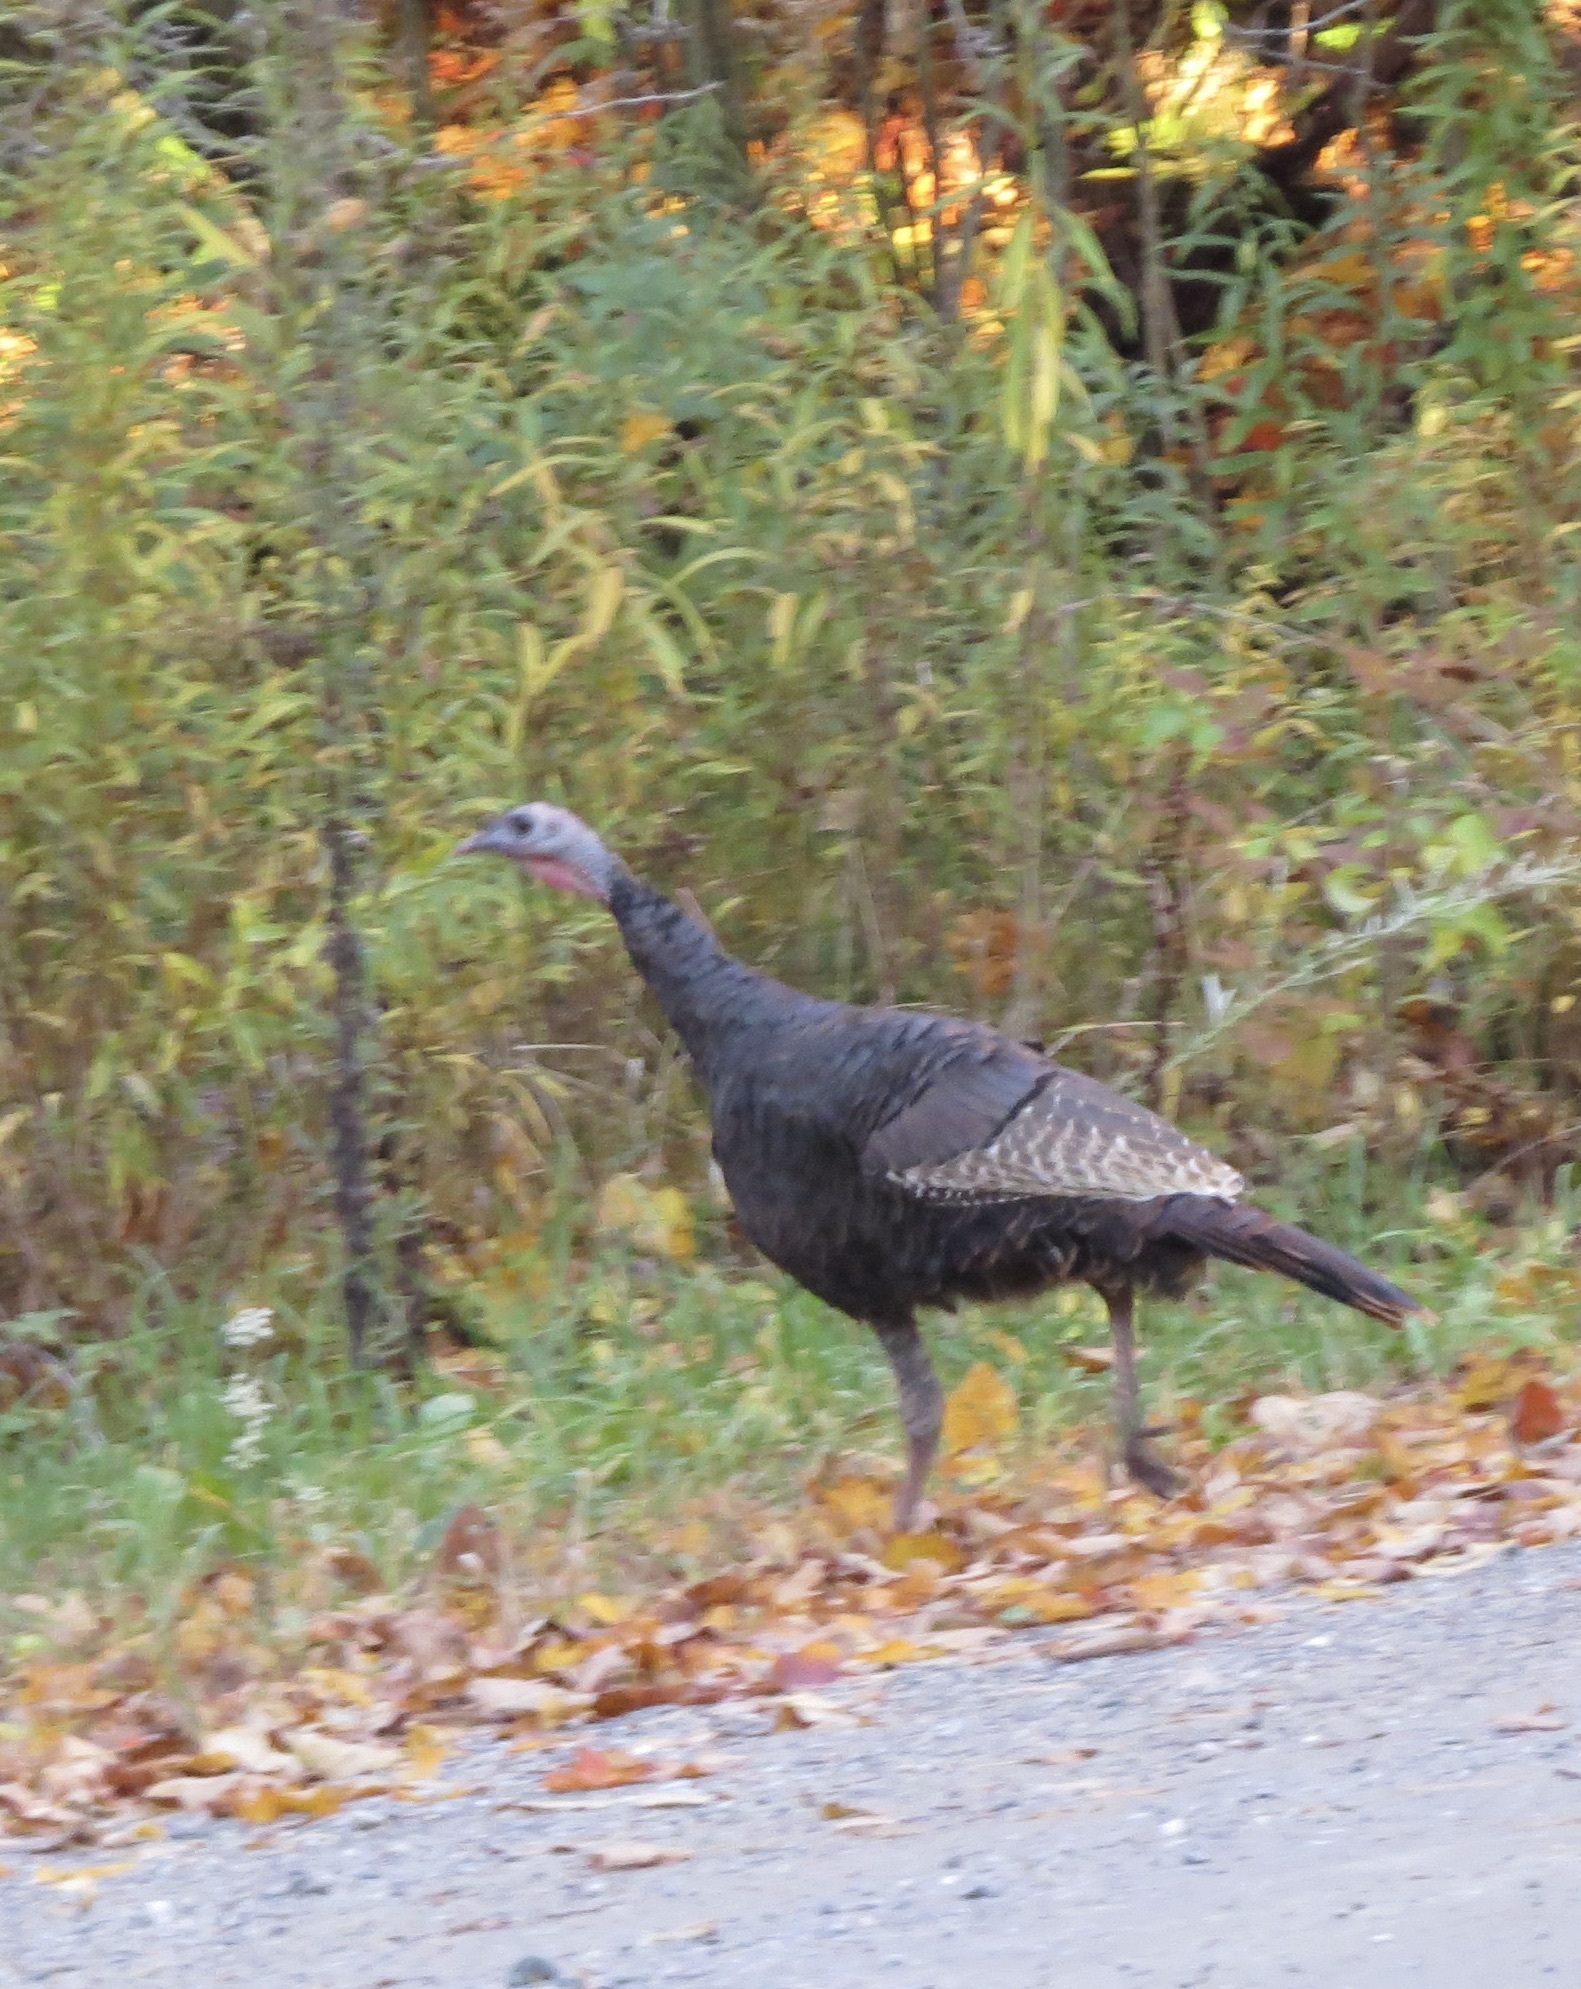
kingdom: Animalia
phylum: Chordata
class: Aves
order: Galliformes
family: Phasianidae
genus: Meleagris
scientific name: Meleagris gallopavo
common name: Wild turkey
